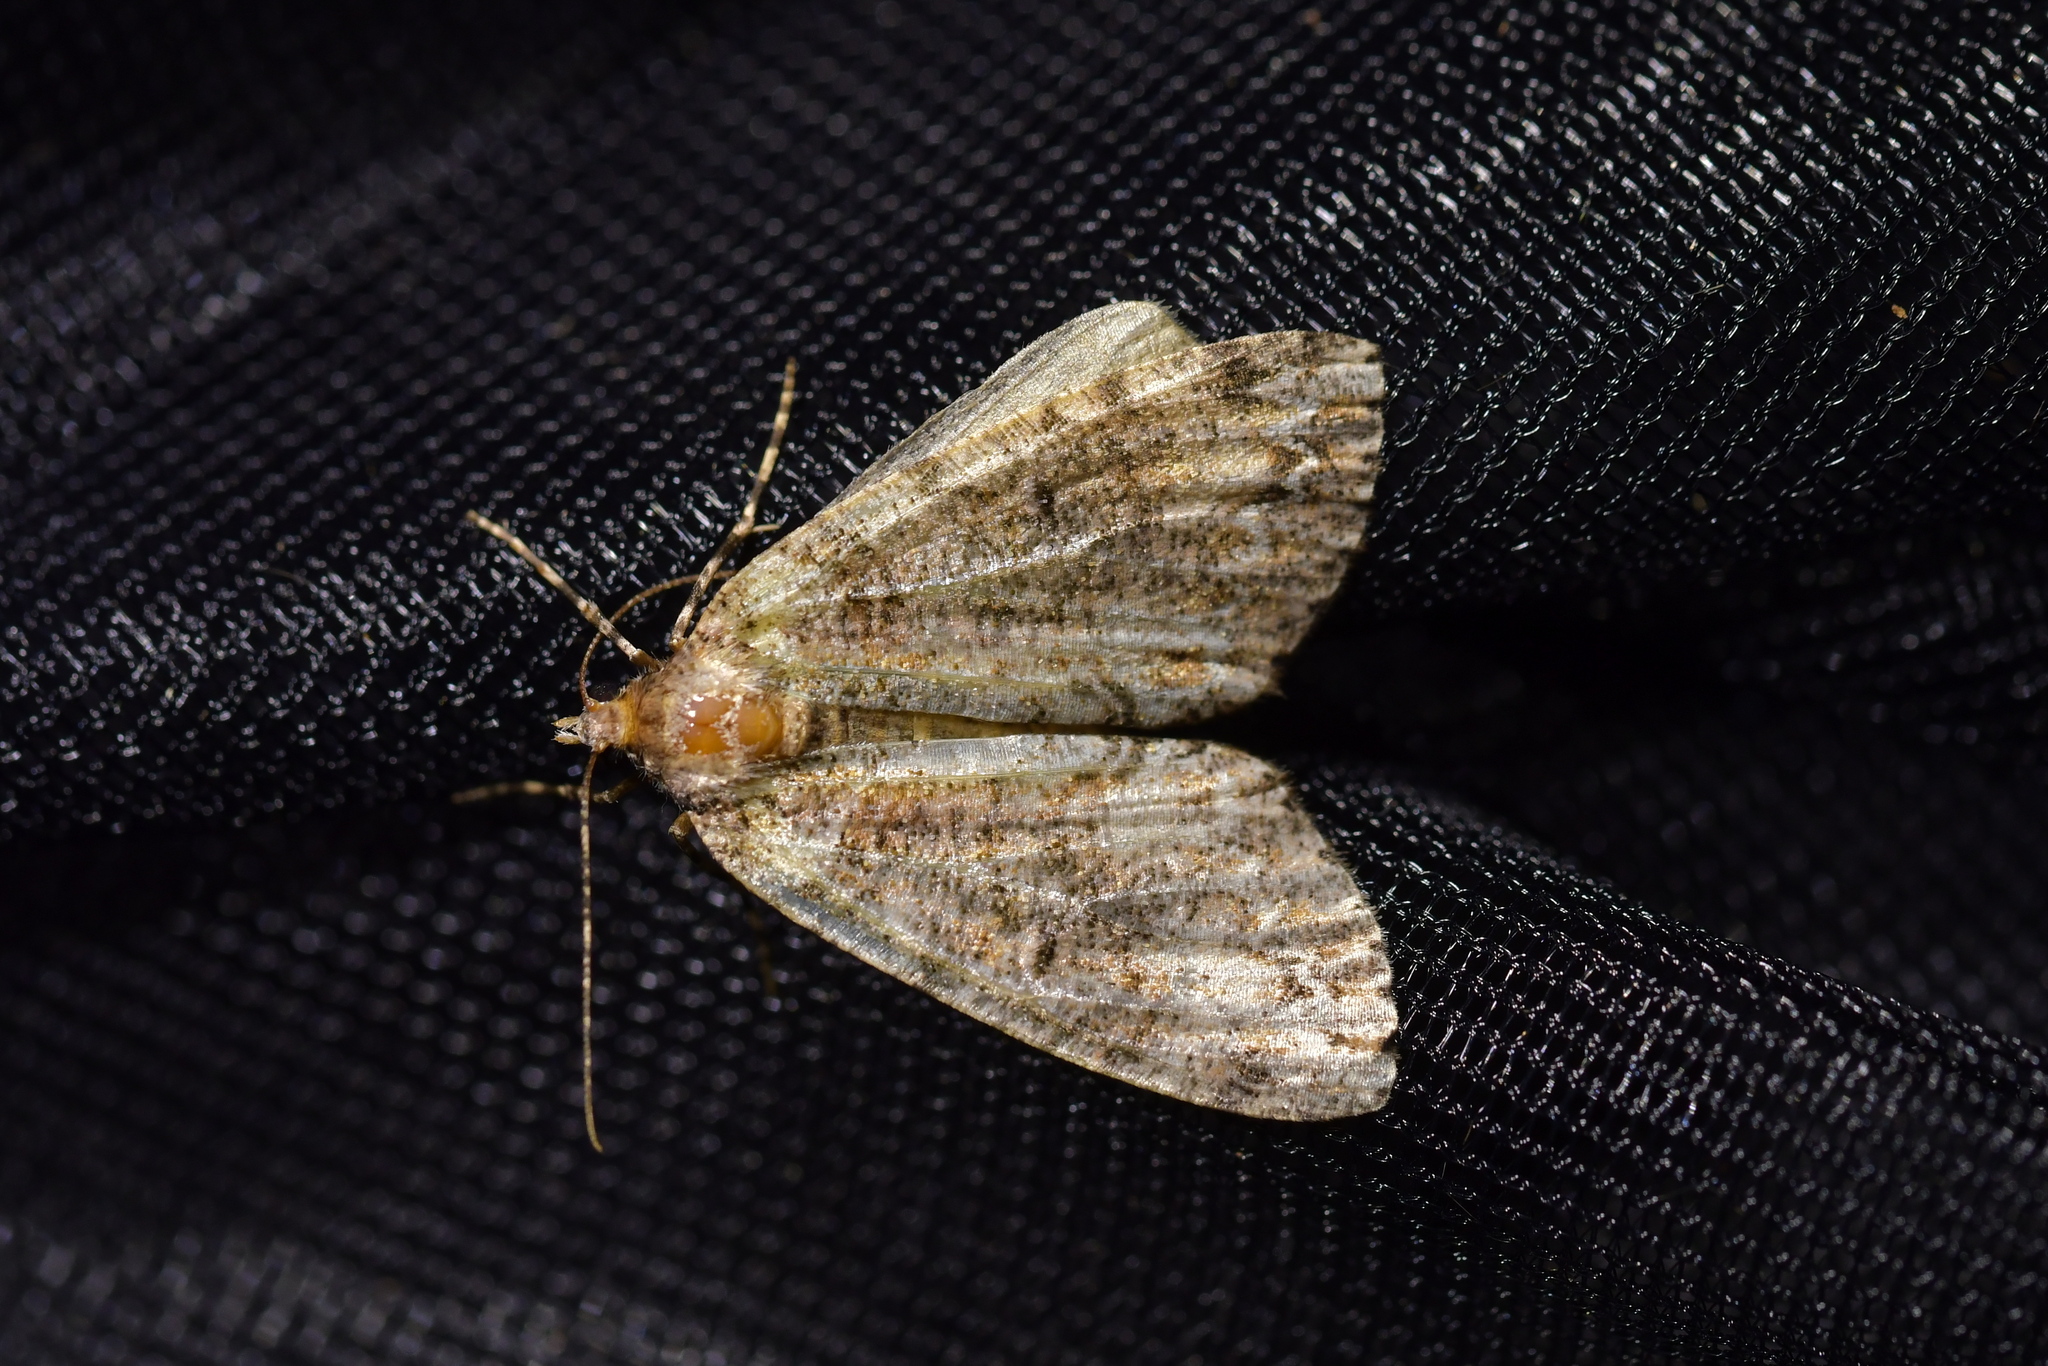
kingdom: Animalia
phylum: Arthropoda
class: Insecta
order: Lepidoptera
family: Geometridae
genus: Pseudocoremia
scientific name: Pseudocoremia suavis
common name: Common forest looper
